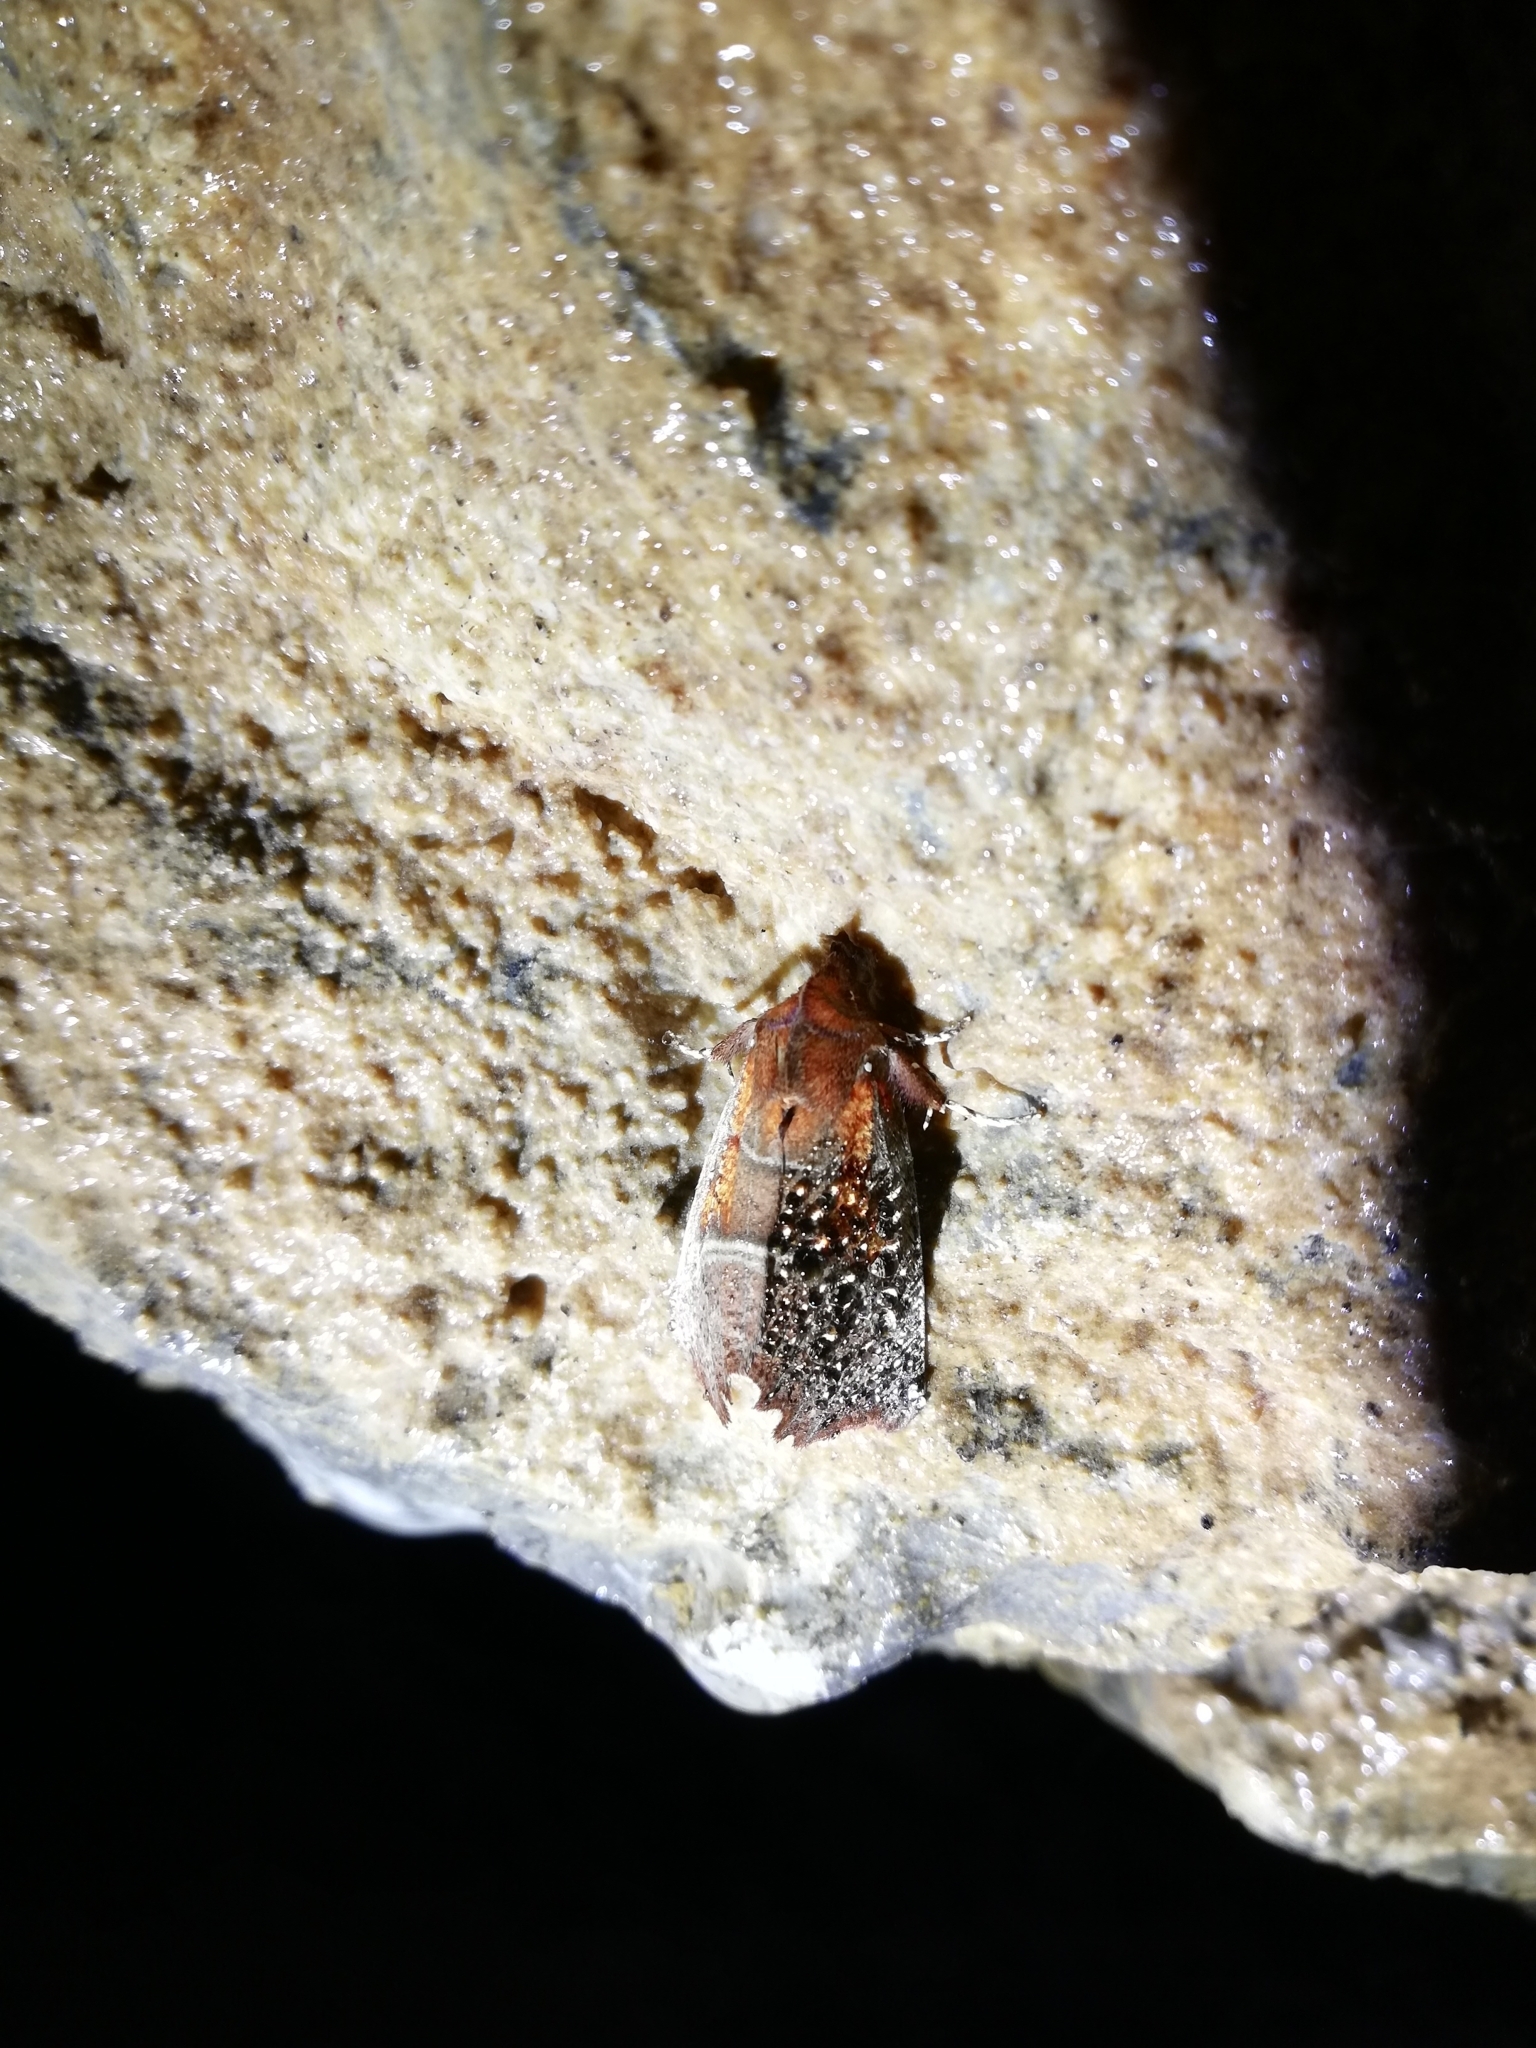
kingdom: Animalia
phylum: Arthropoda
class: Insecta
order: Lepidoptera
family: Erebidae
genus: Scoliopteryx
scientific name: Scoliopteryx libatrix
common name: Herald
